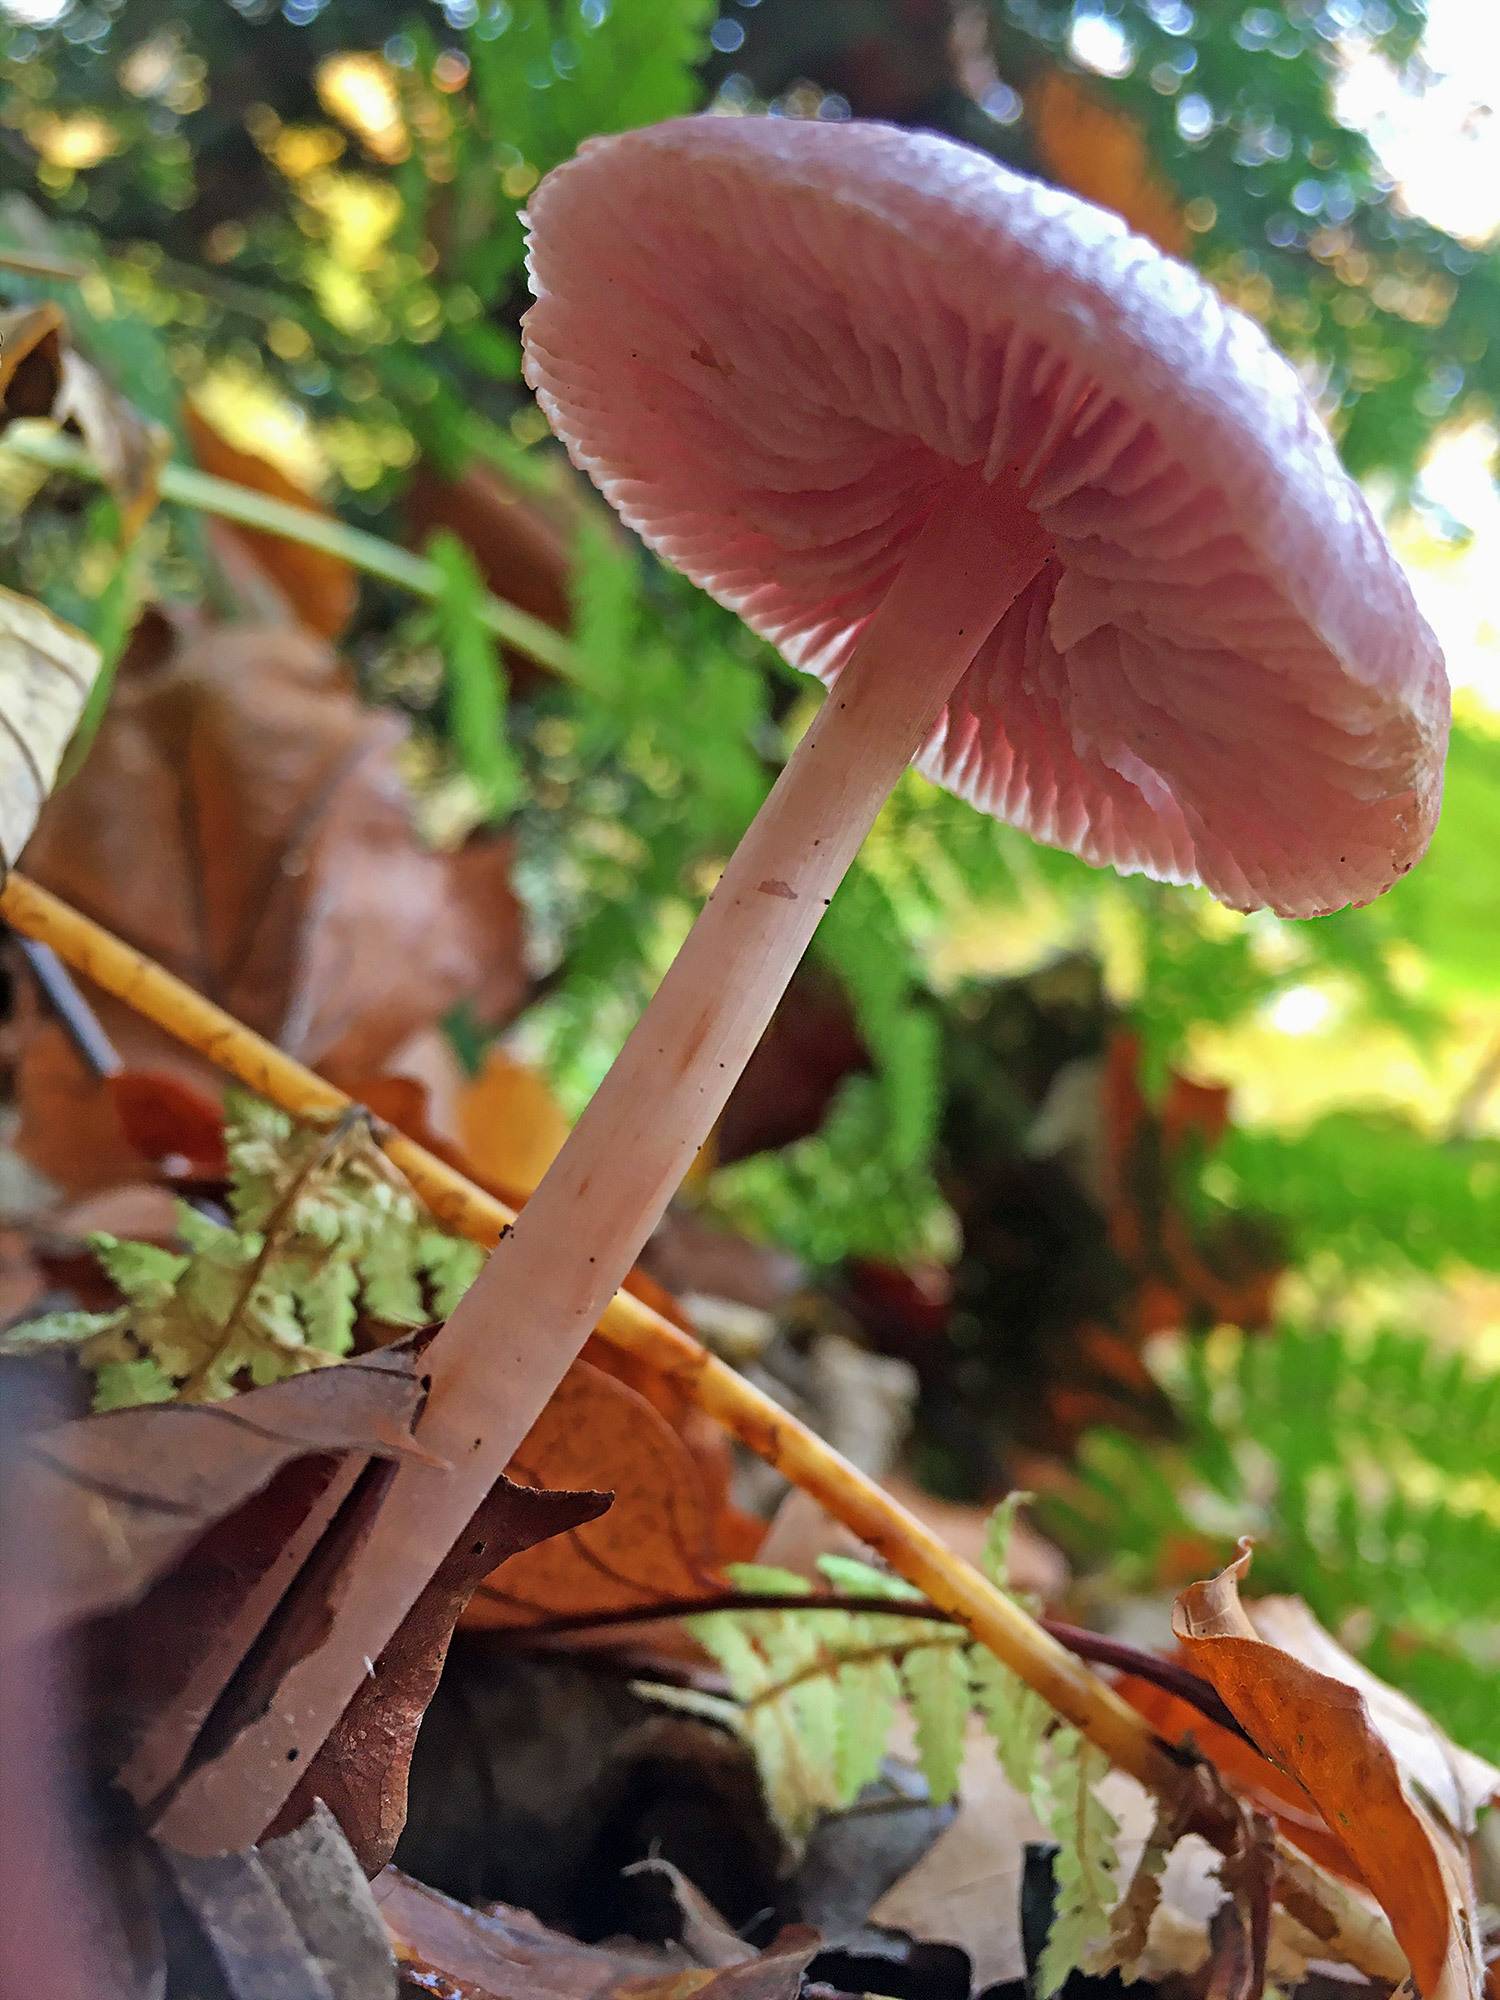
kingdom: Fungi
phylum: Basidiomycota
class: Agaricomycetes
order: Agaricales
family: Mycenaceae
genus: Mycena
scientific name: Mycena rosea
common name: Rosy bonnet
